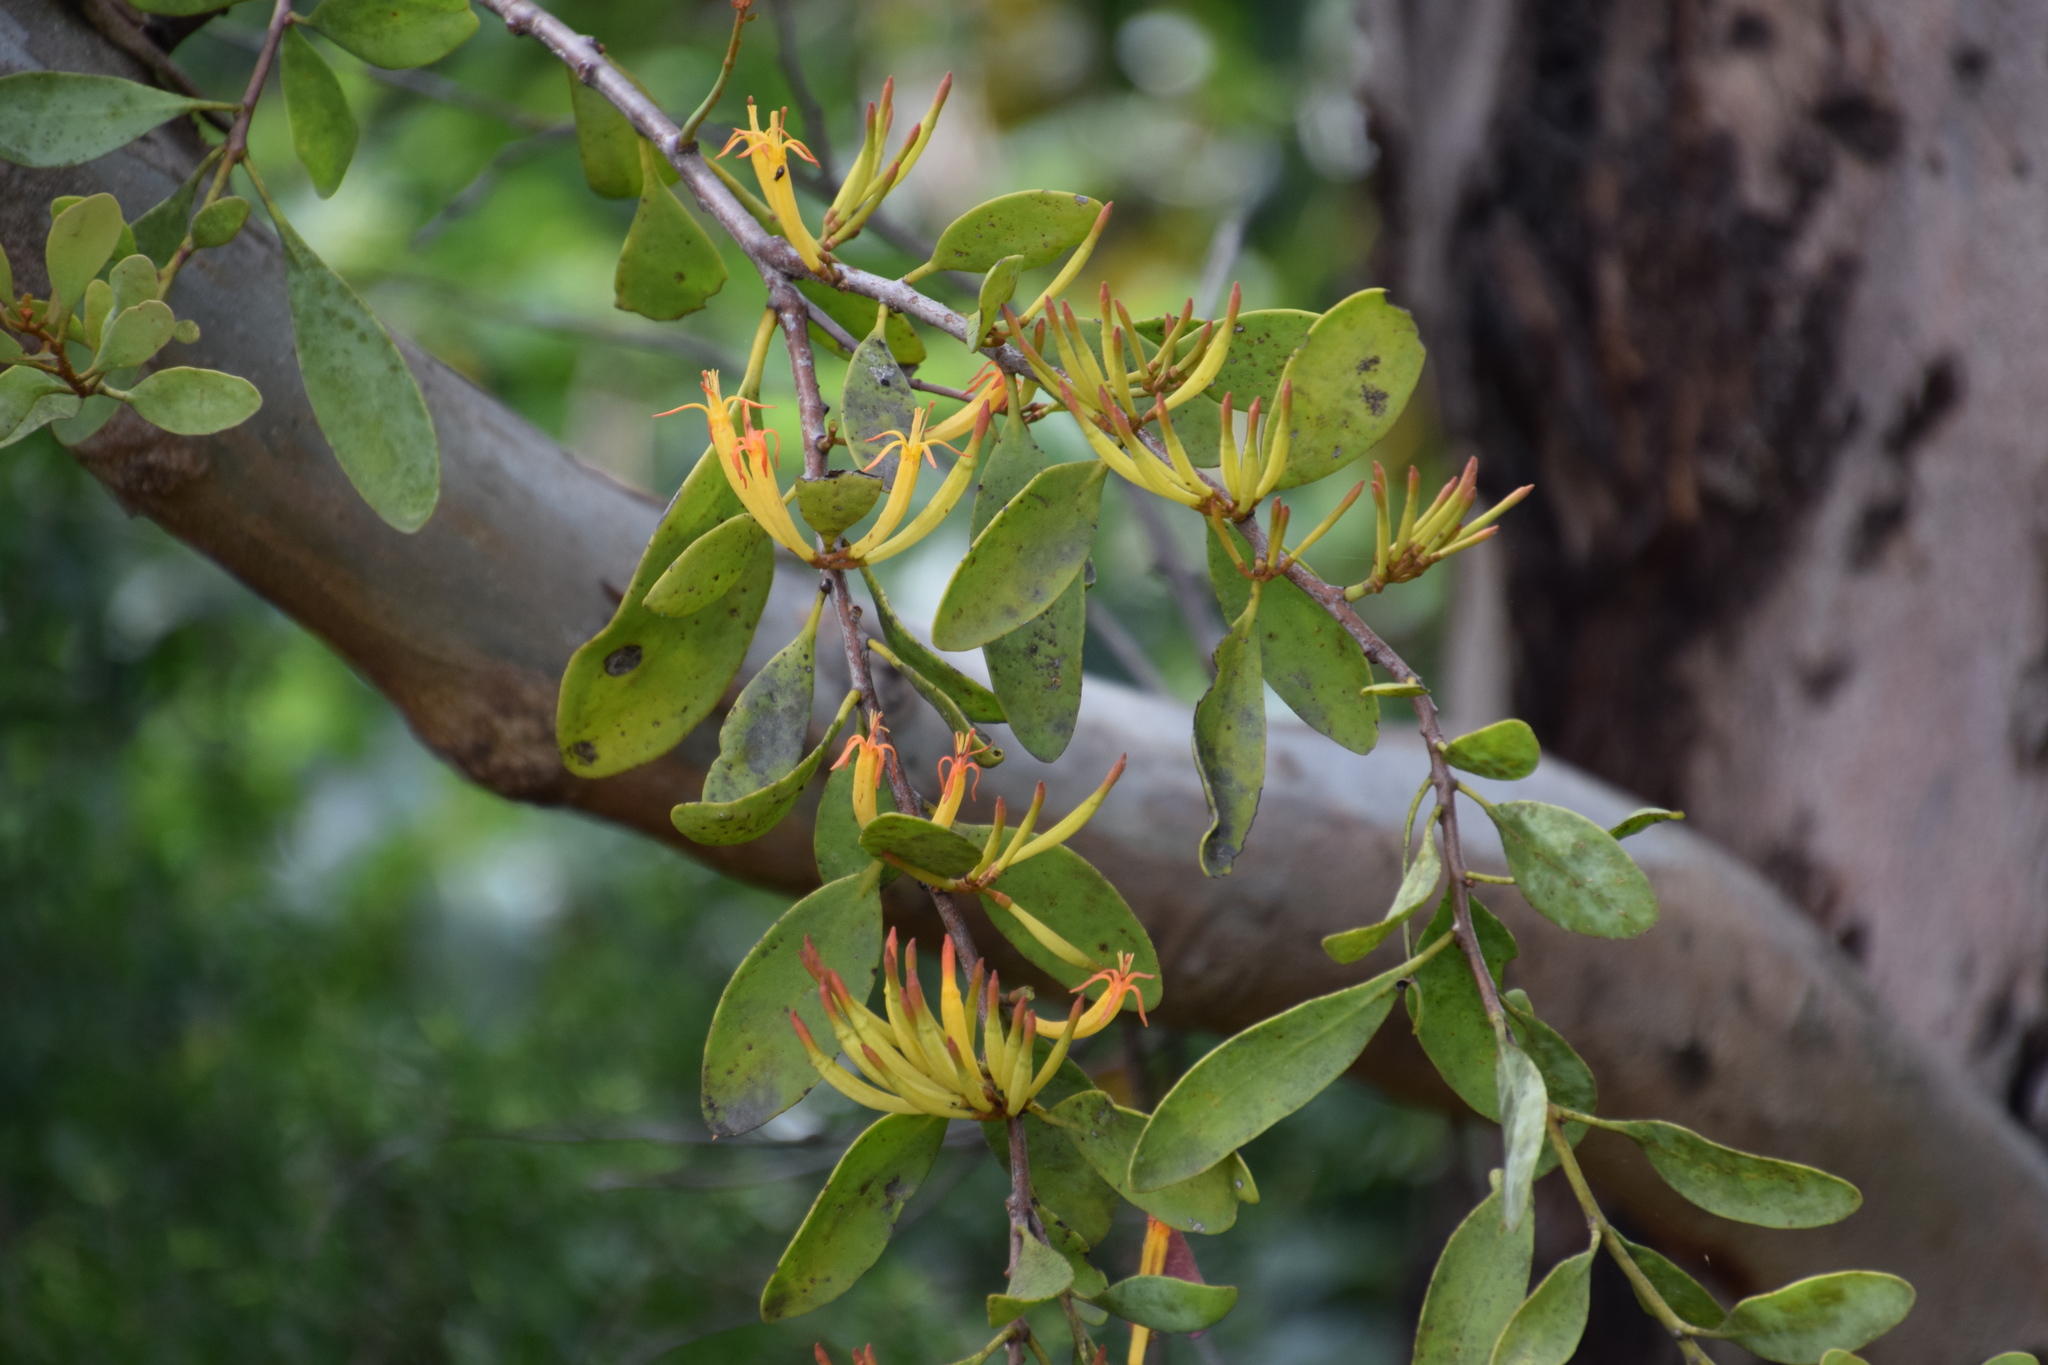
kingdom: Plantae
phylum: Tracheophyta
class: Magnoliopsida
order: Santalales
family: Loranthaceae
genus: Dendrophthoe
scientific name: Dendrophthoe vitellina
